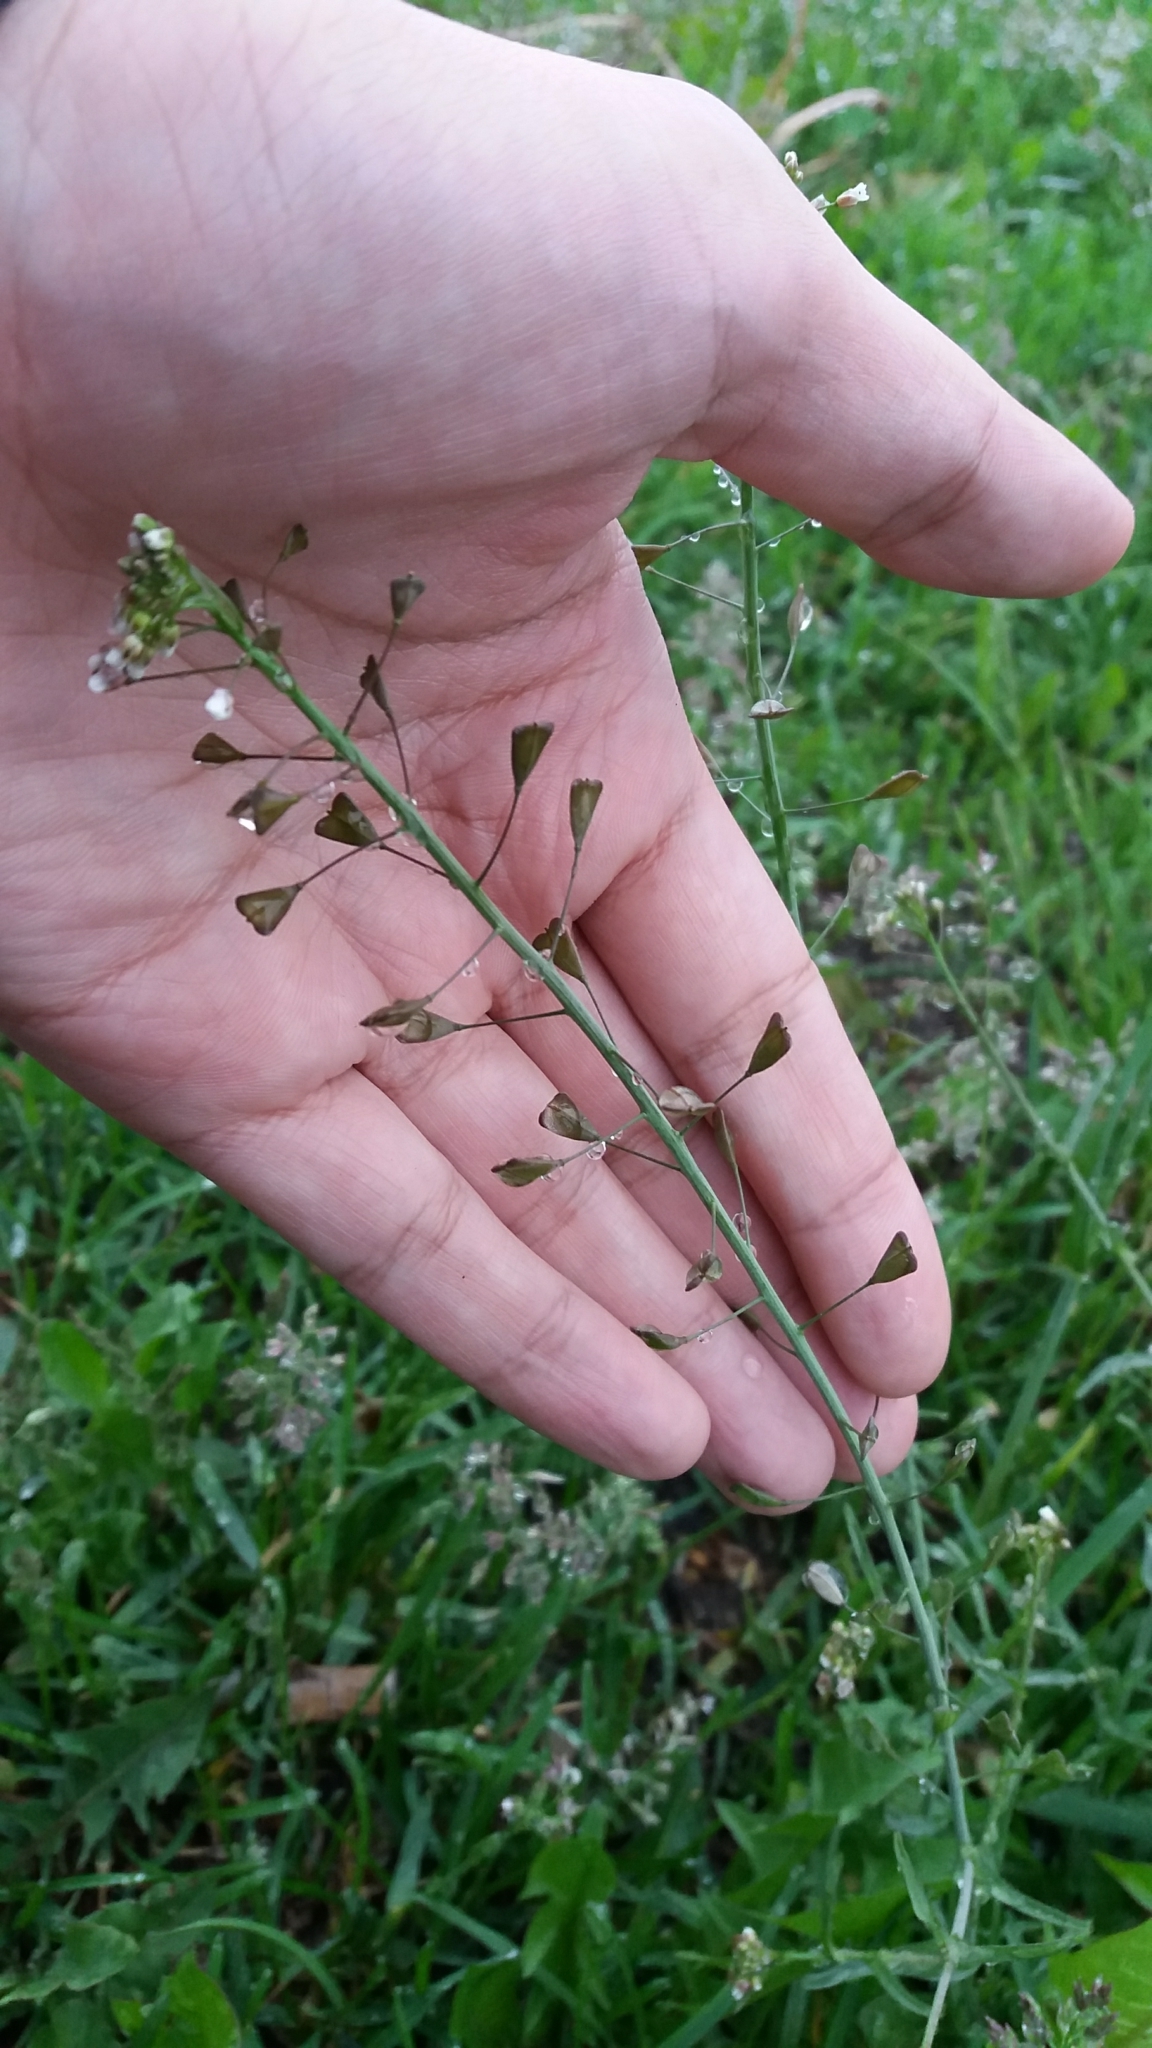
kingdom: Plantae
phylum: Tracheophyta
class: Magnoliopsida
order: Brassicales
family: Brassicaceae
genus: Capsella
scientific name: Capsella bursa-pastoris
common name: Shepherd's purse
